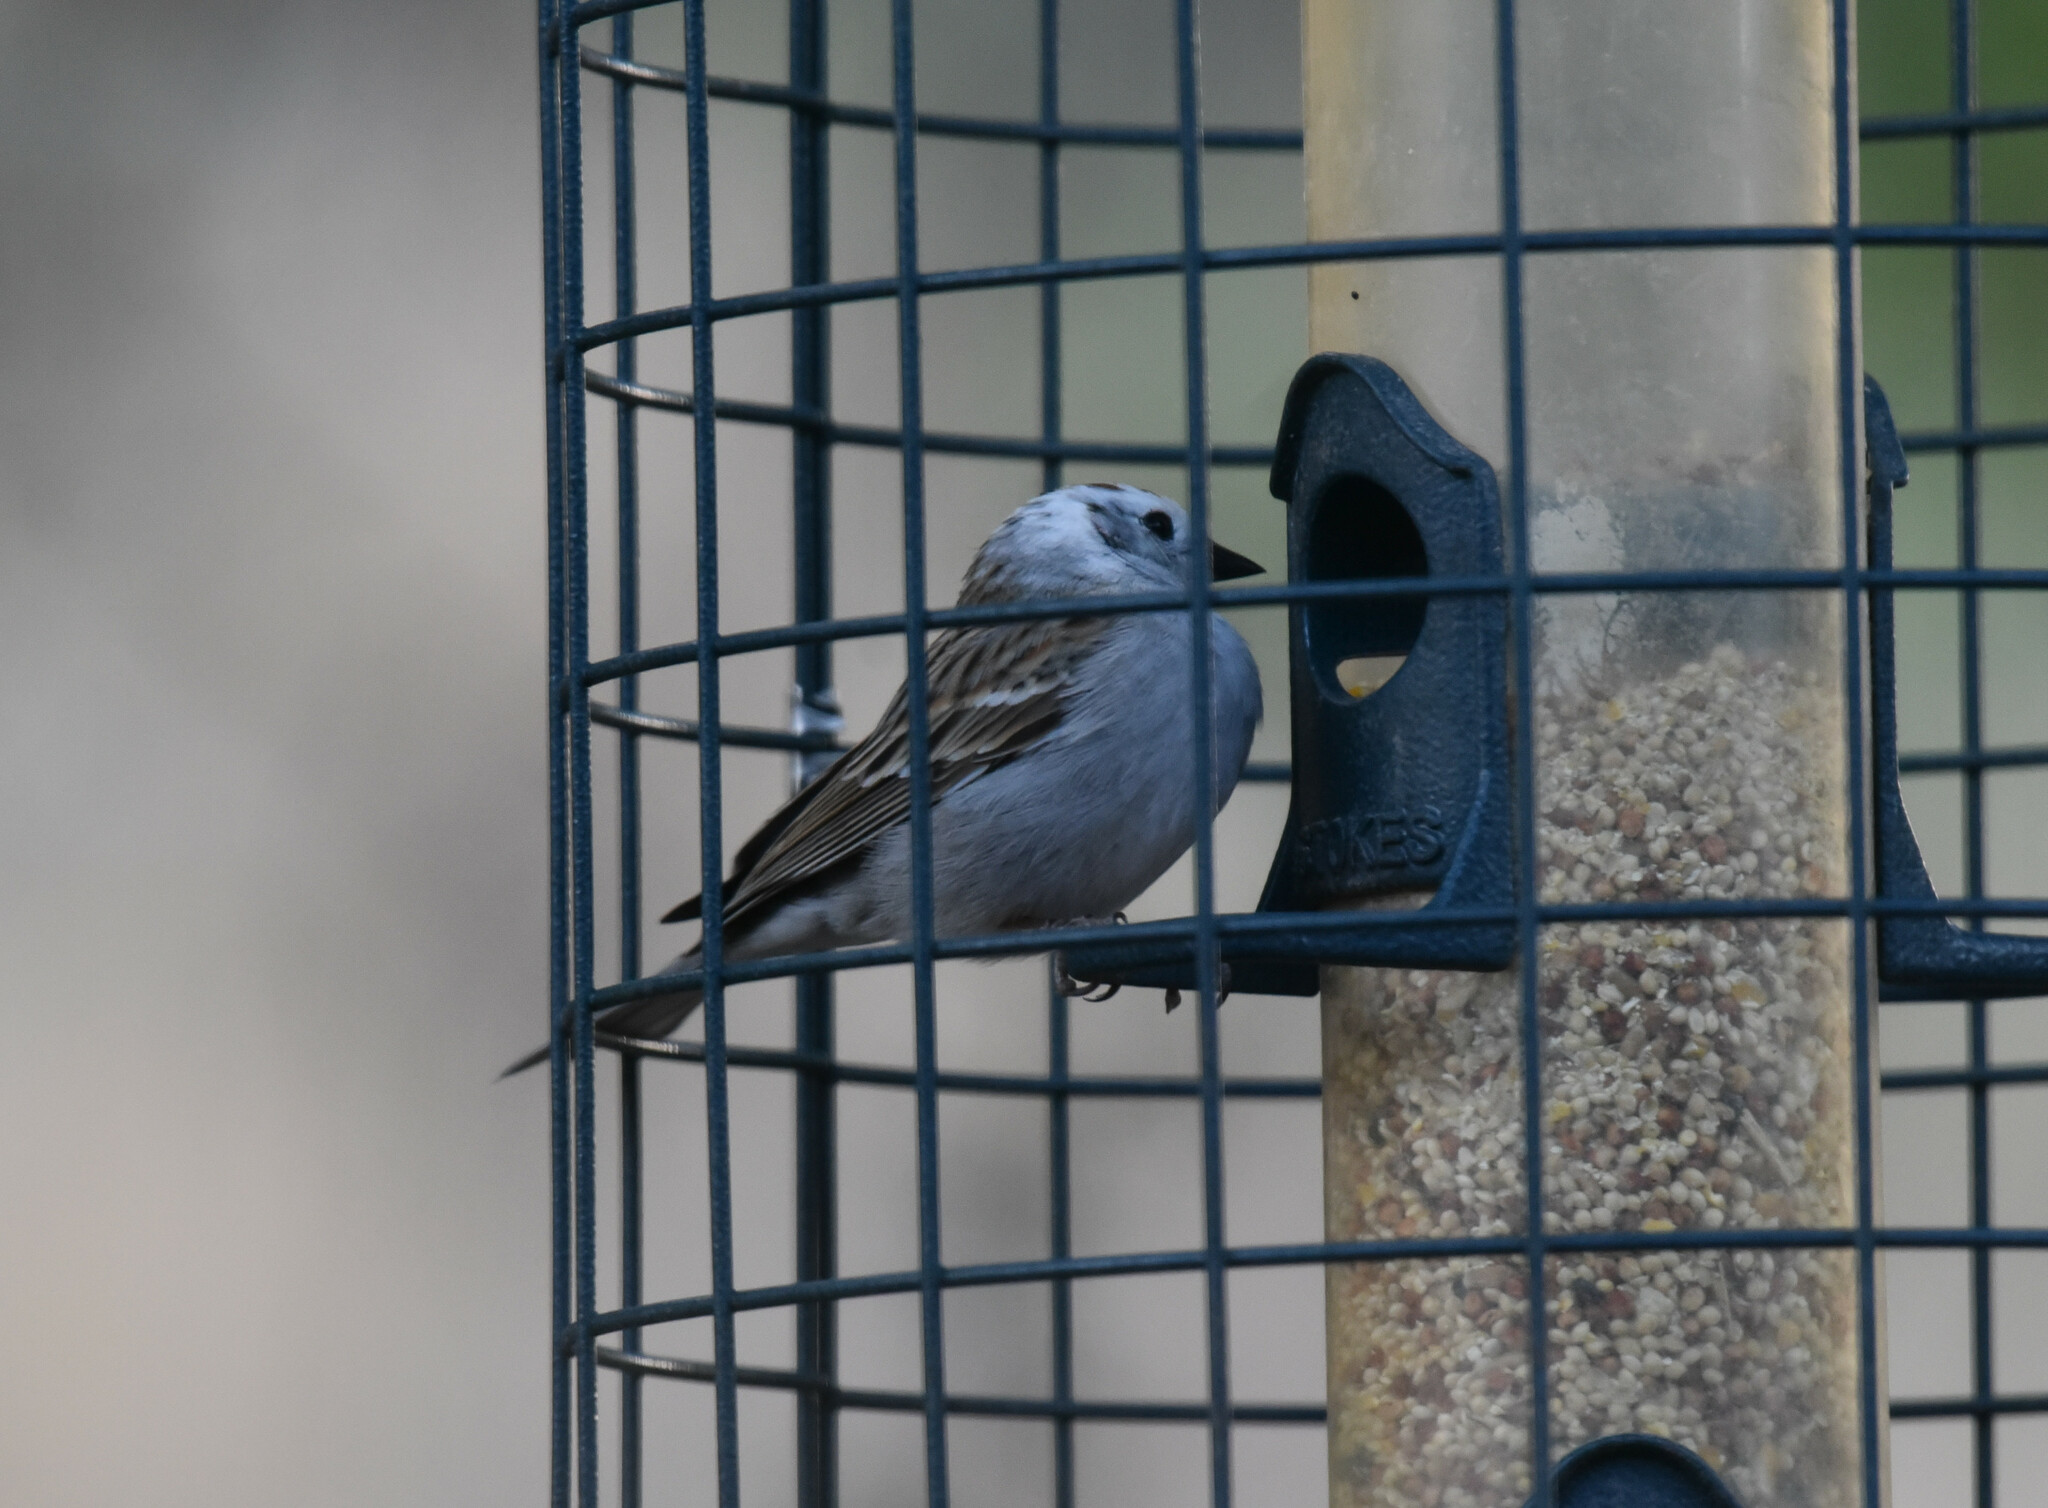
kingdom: Animalia
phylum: Chordata
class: Aves
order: Passeriformes
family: Passerellidae
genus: Spizella
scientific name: Spizella passerina
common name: Chipping sparrow
